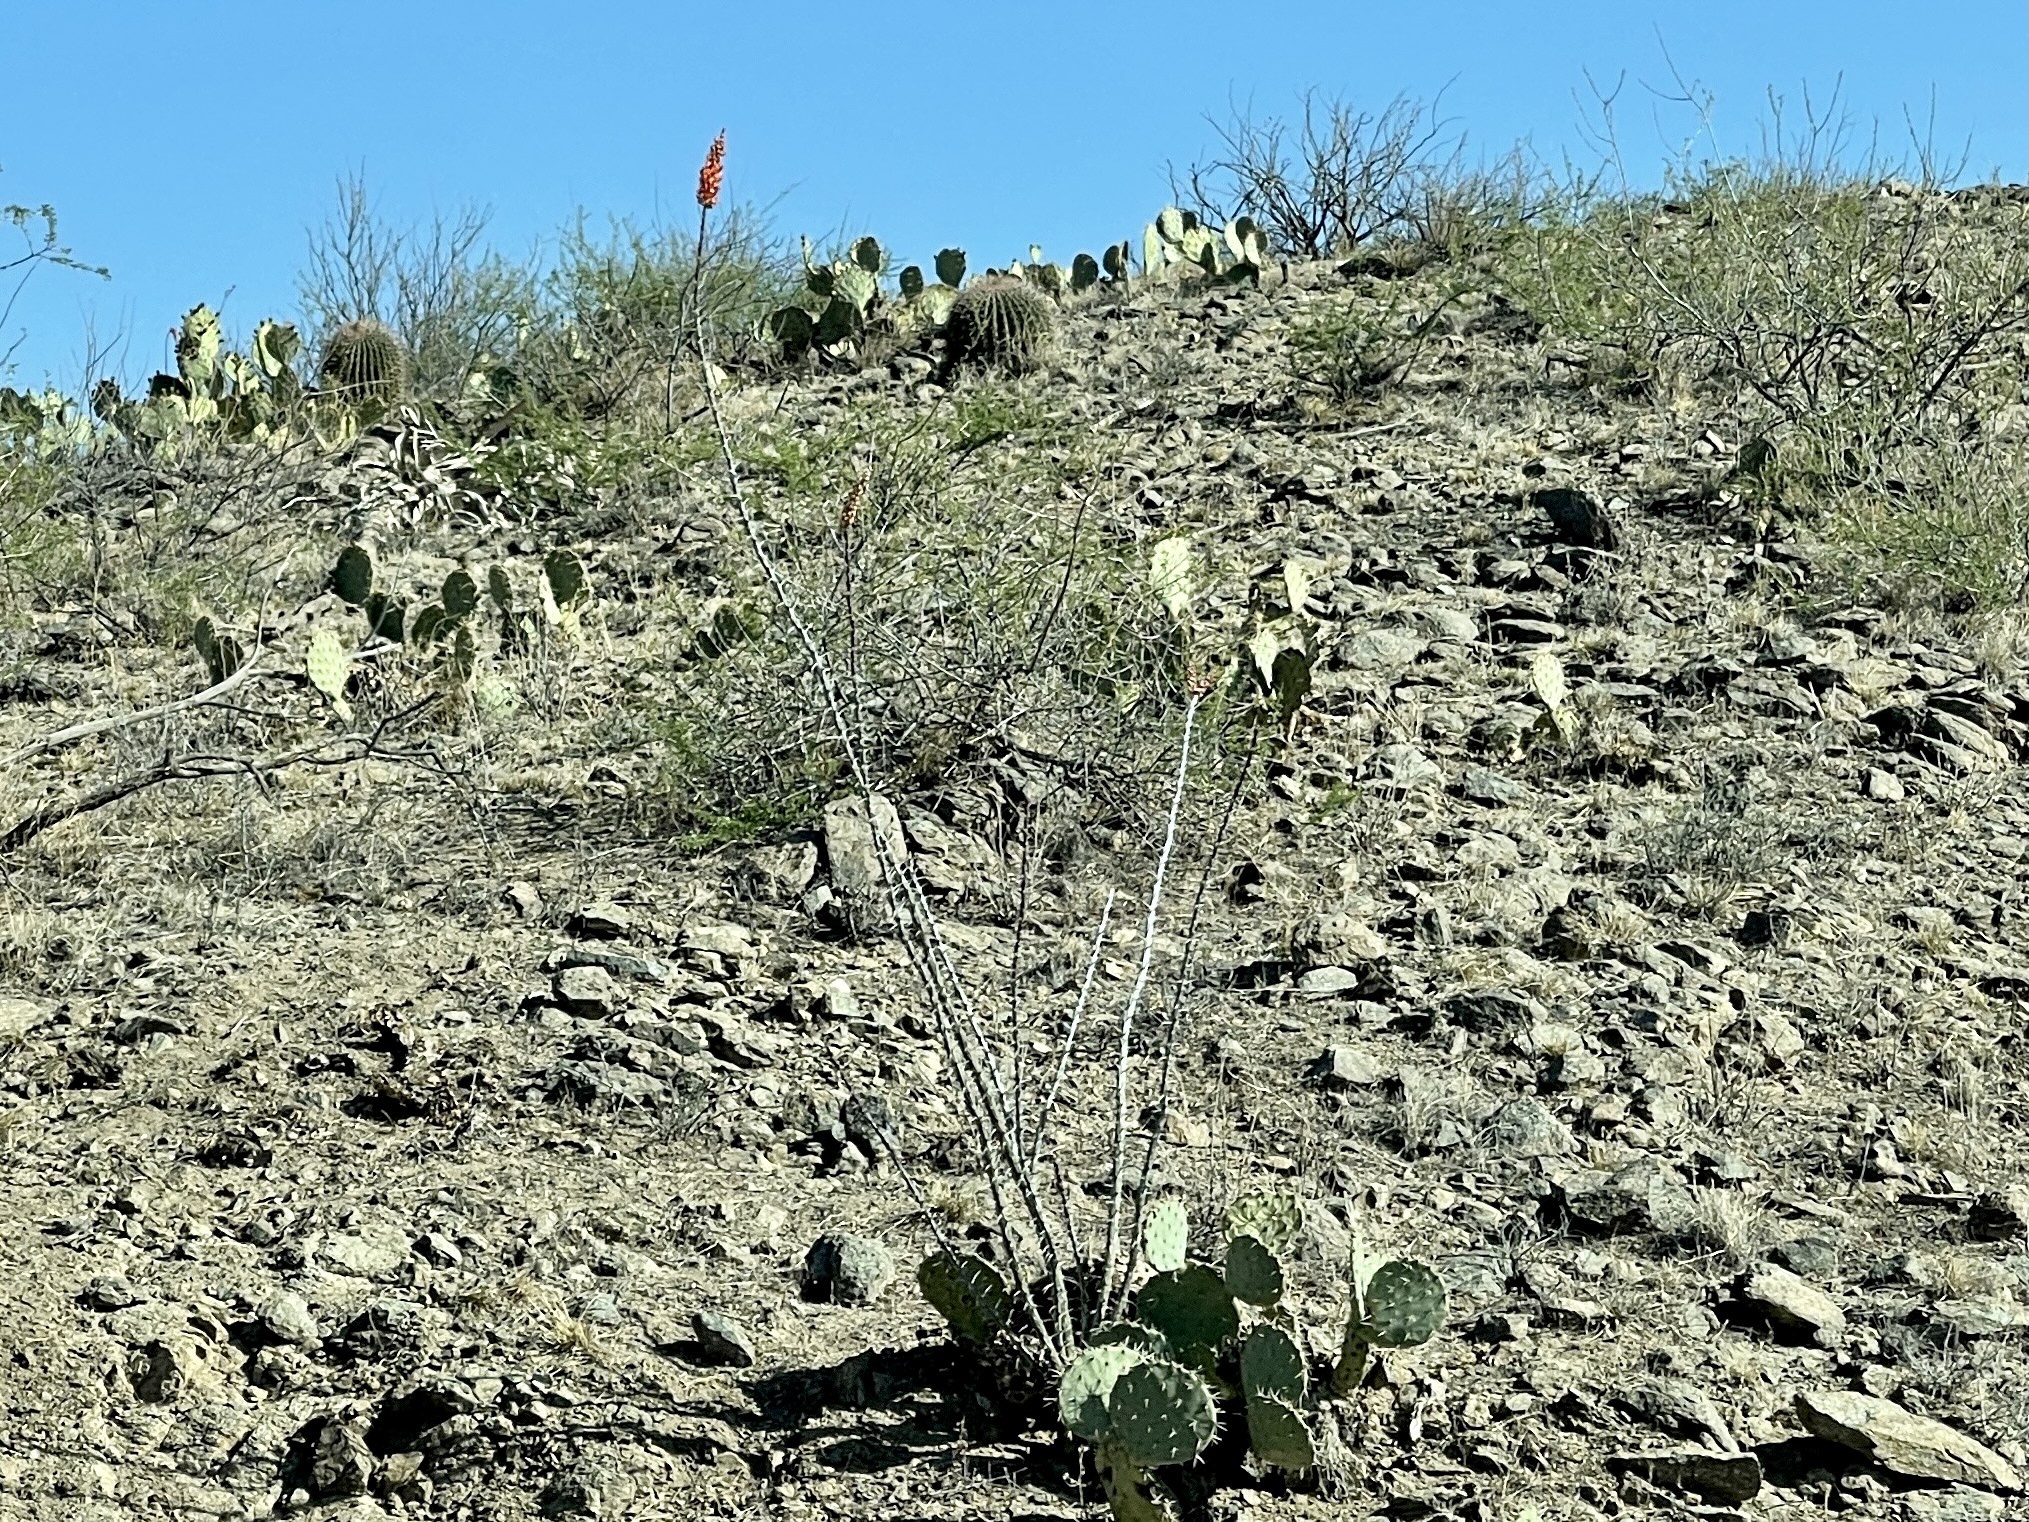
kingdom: Plantae
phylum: Tracheophyta
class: Magnoliopsida
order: Ericales
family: Fouquieriaceae
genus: Fouquieria
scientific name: Fouquieria splendens
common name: Vine-cactus
